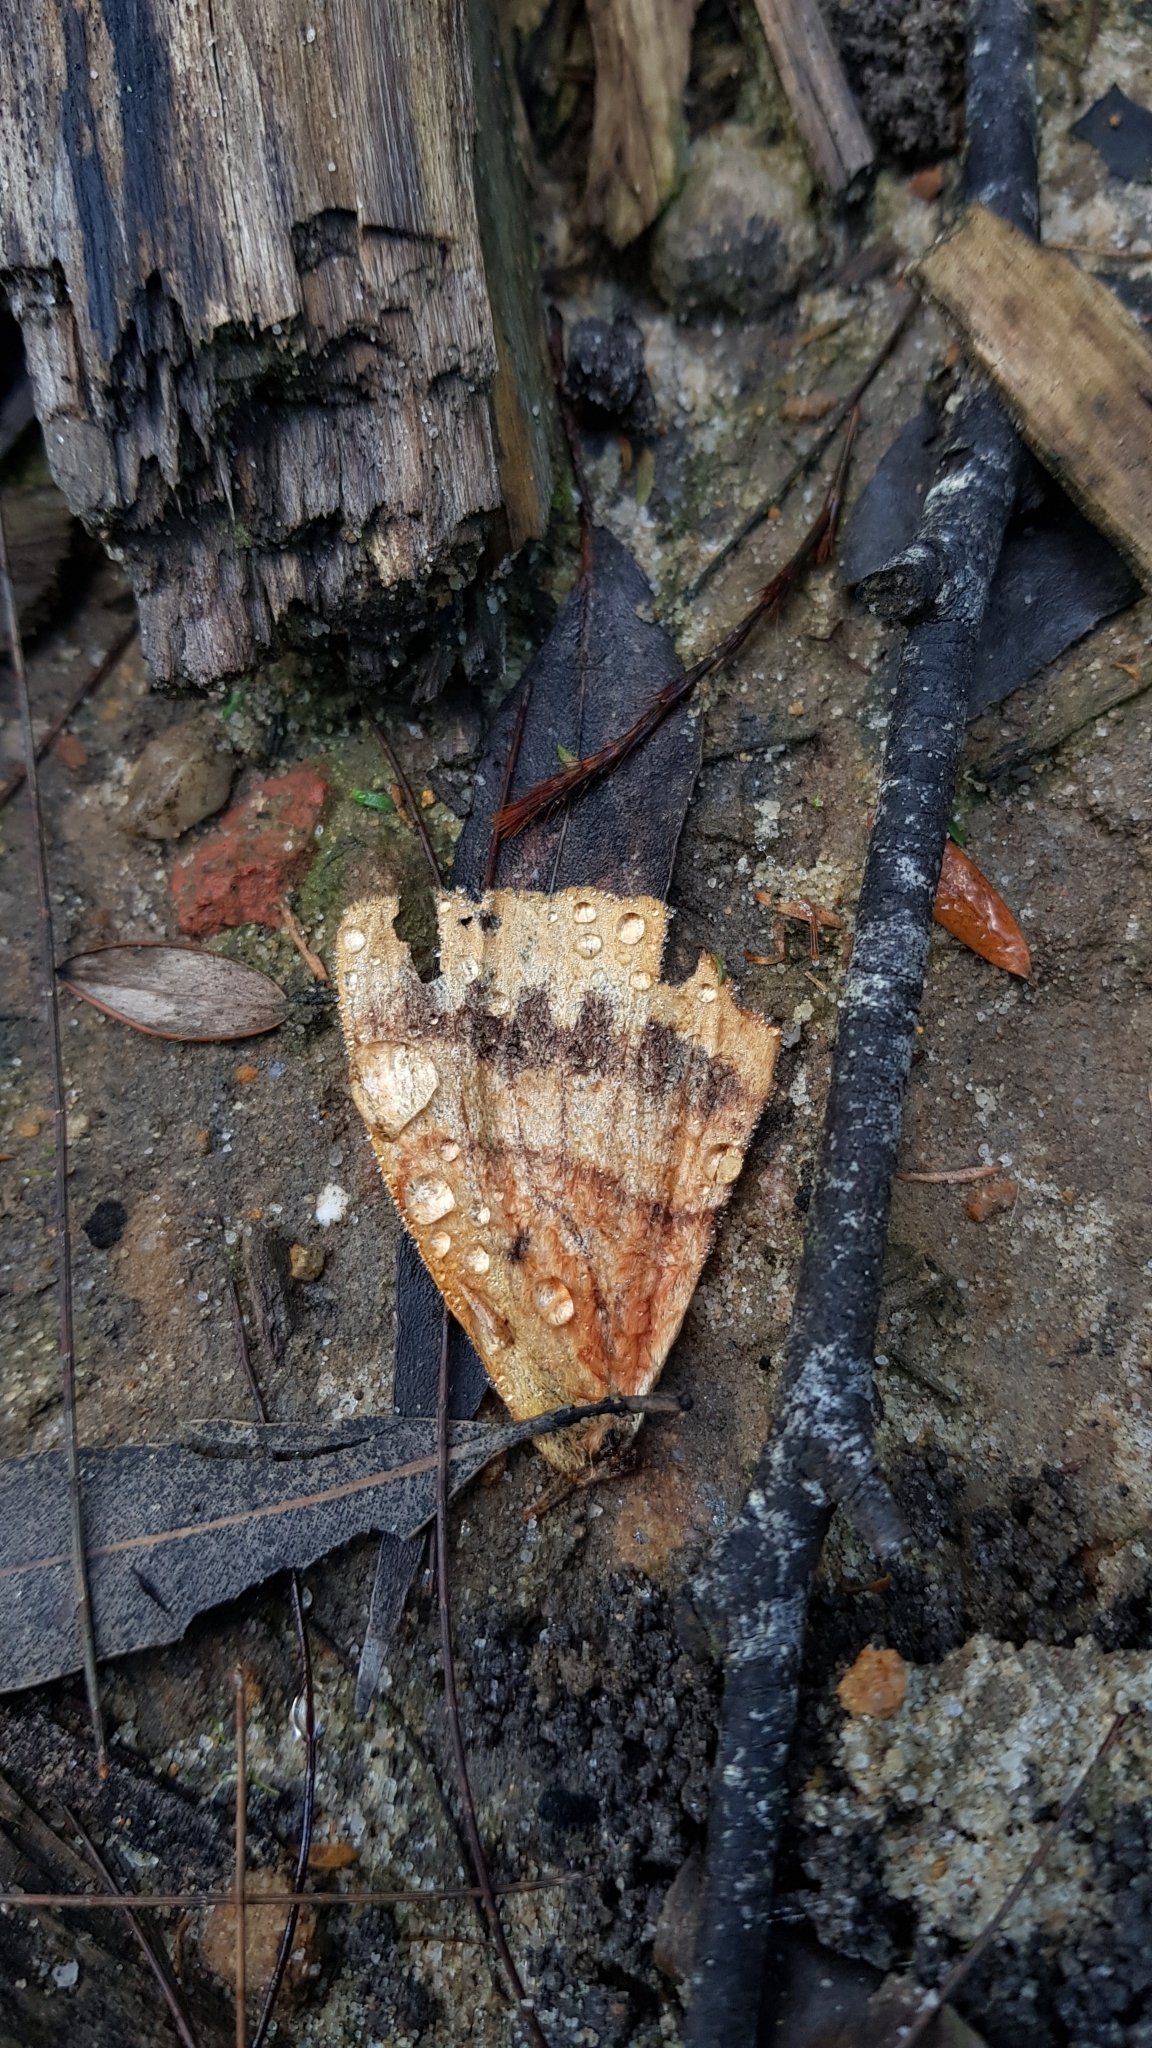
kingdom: Animalia
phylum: Arthropoda
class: Insecta
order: Lepidoptera
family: Anthelidae
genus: Chelepteryx
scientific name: Chelepteryx chalepteryx
